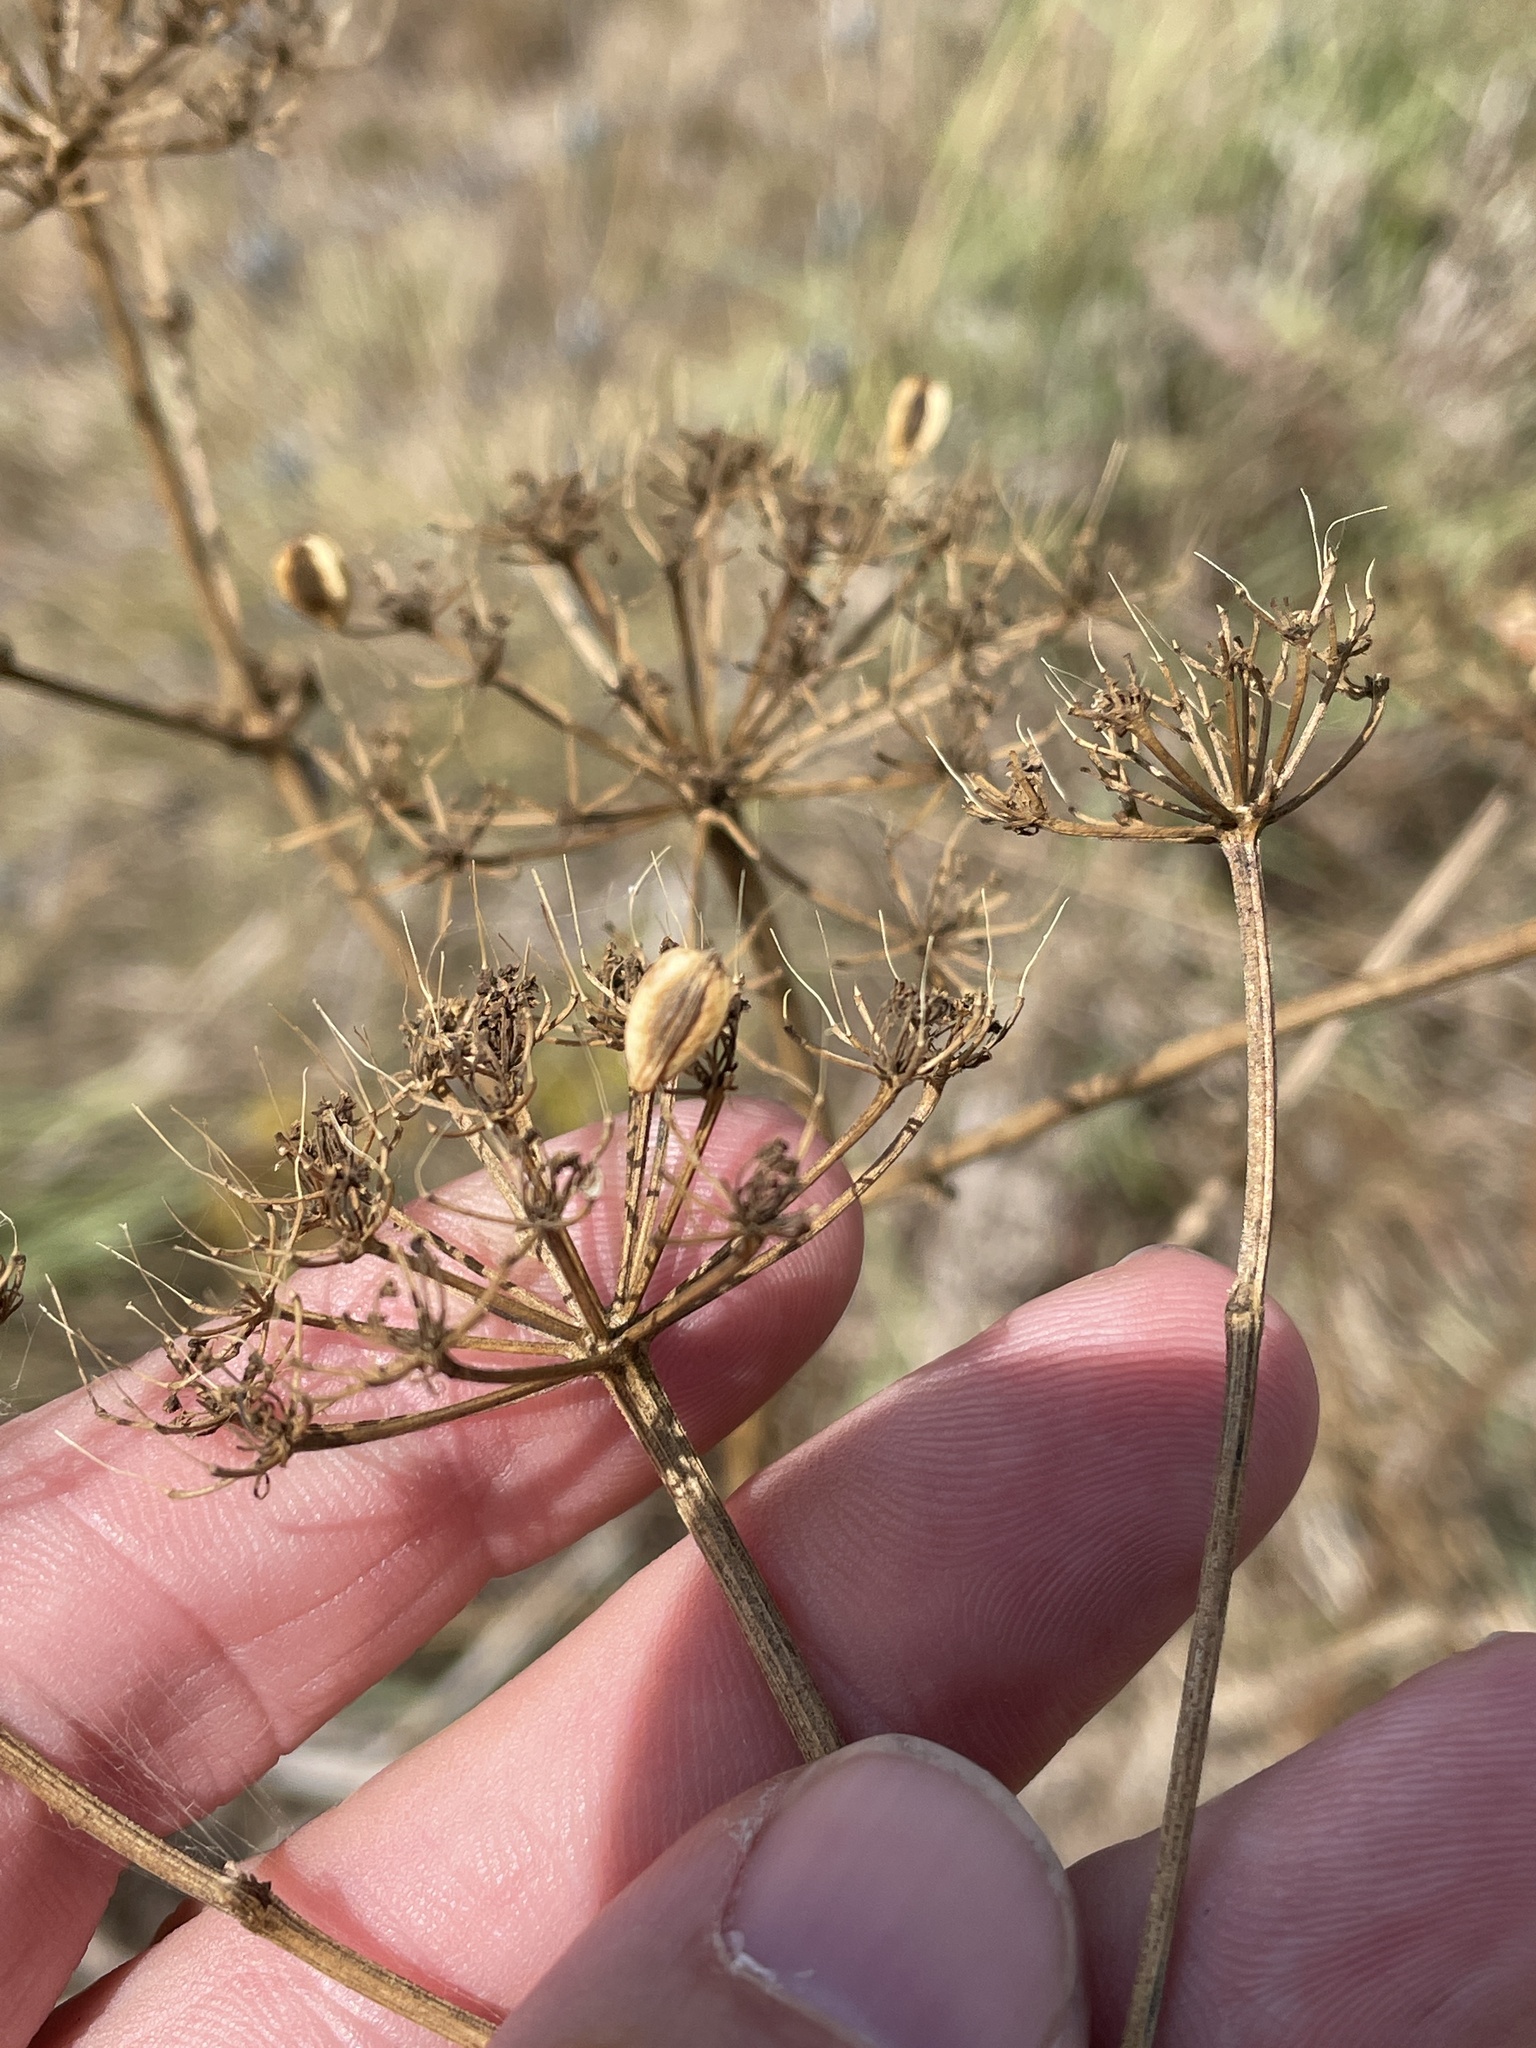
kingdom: Plantae
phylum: Tracheophyta
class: Magnoliopsida
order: Apiales
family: Apiaceae
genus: Polytaenia
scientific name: Polytaenia texana
